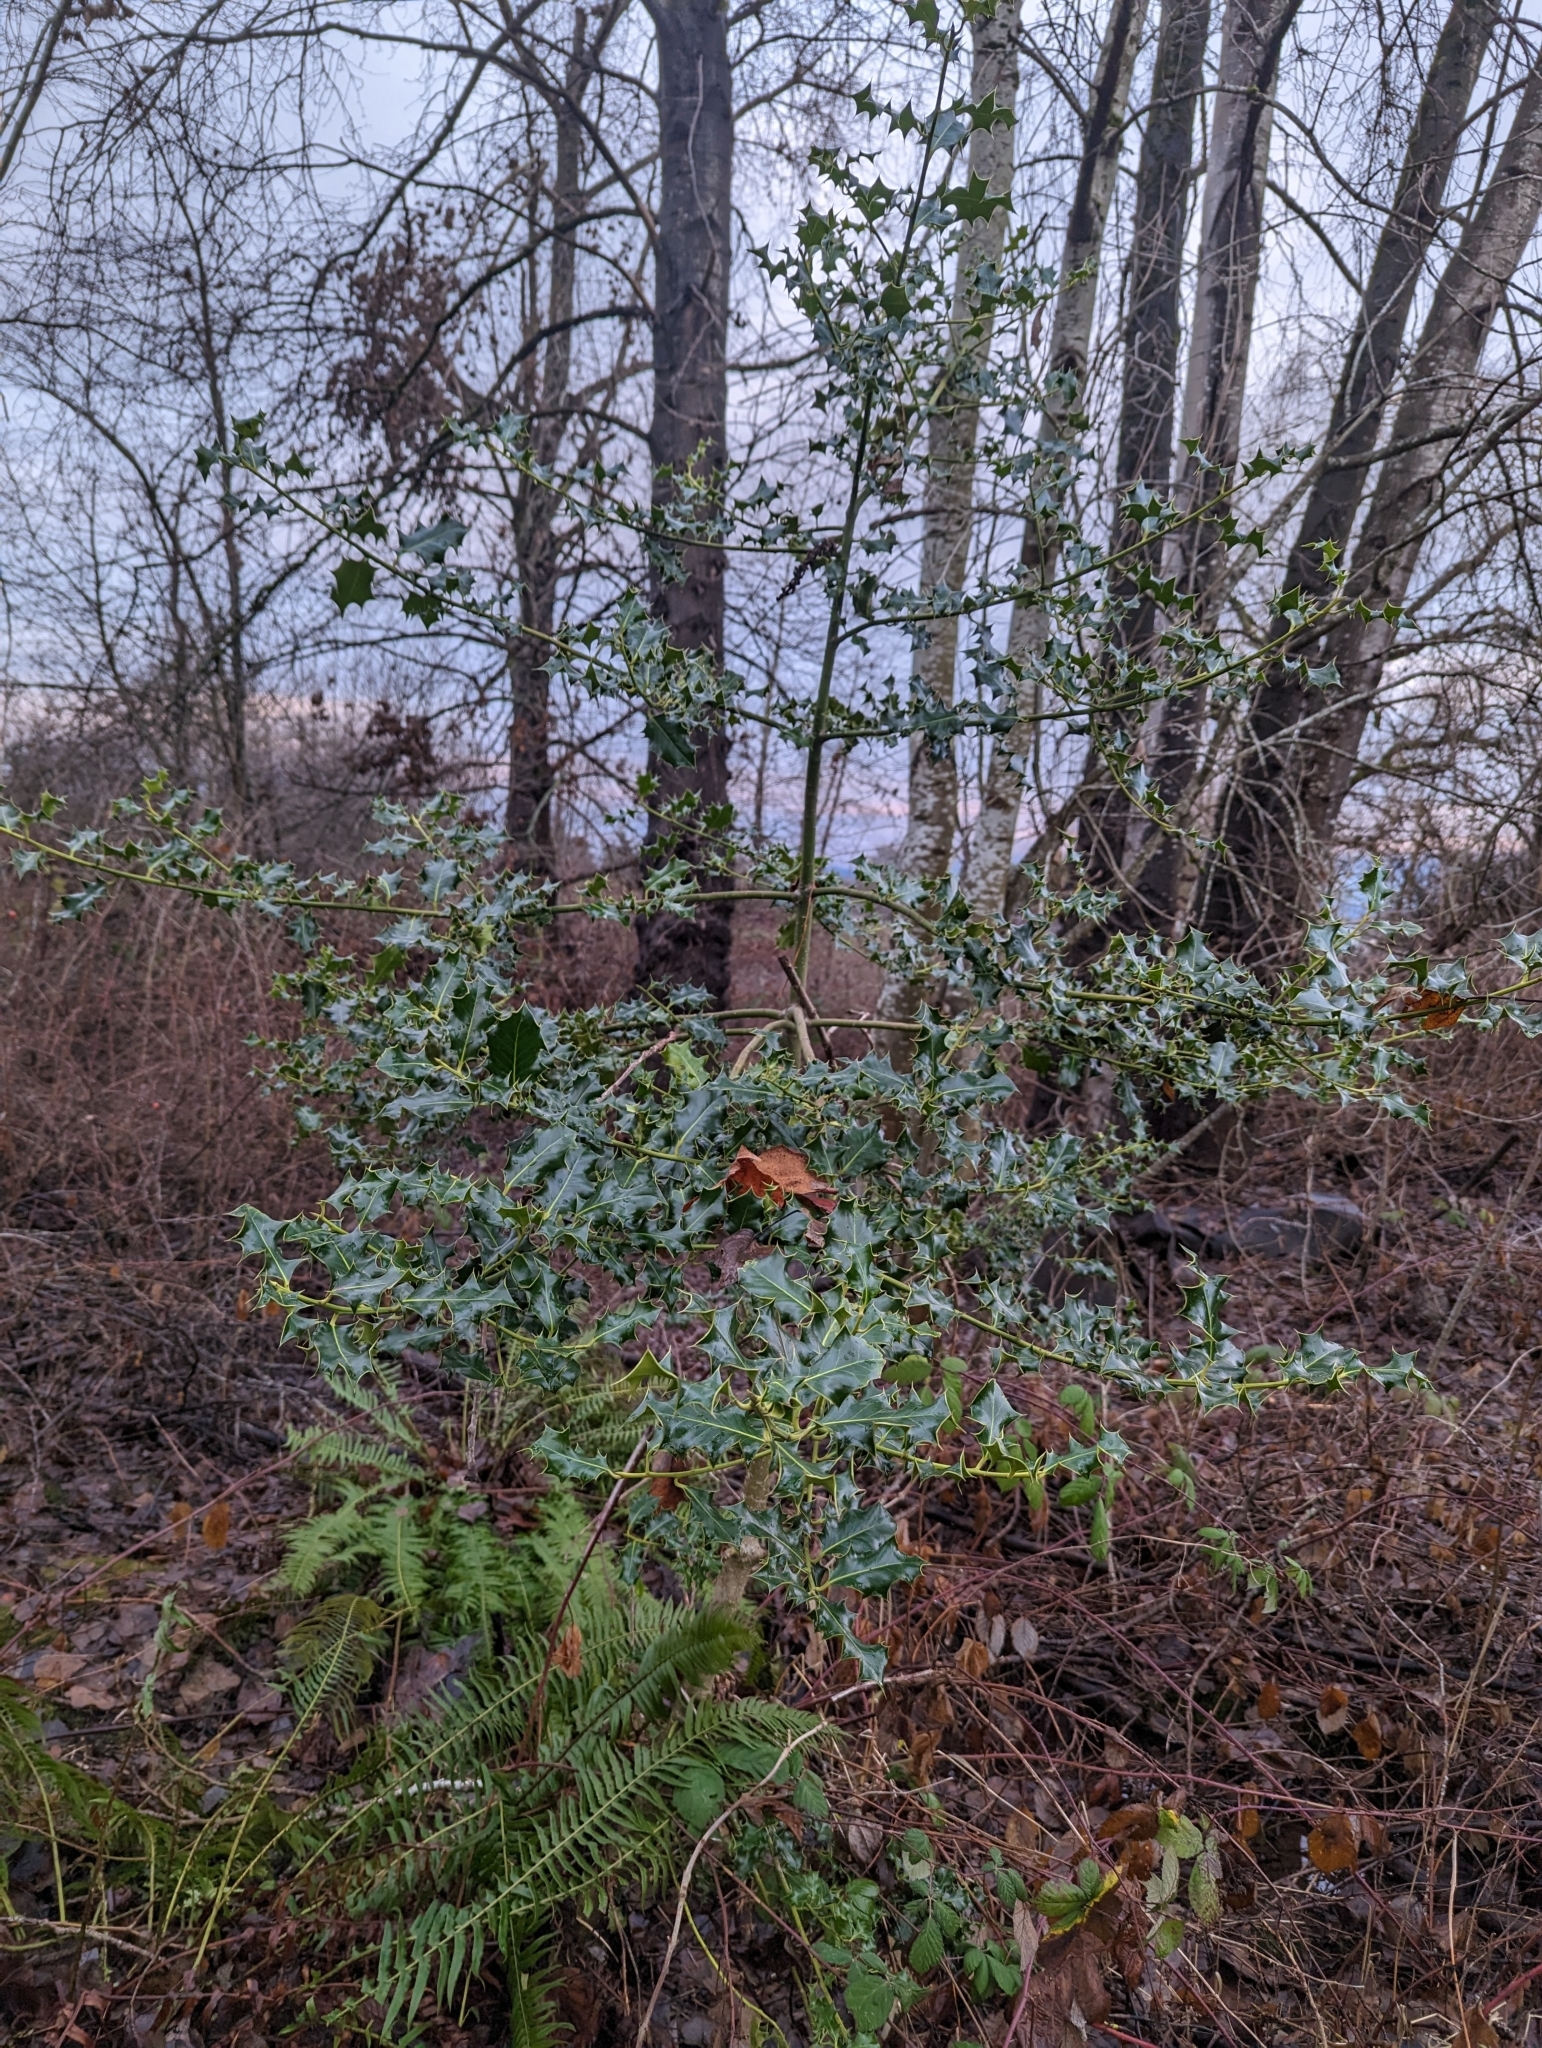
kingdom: Plantae
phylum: Tracheophyta
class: Magnoliopsida
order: Aquifoliales
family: Aquifoliaceae
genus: Ilex
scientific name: Ilex aquifolium
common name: English holly
